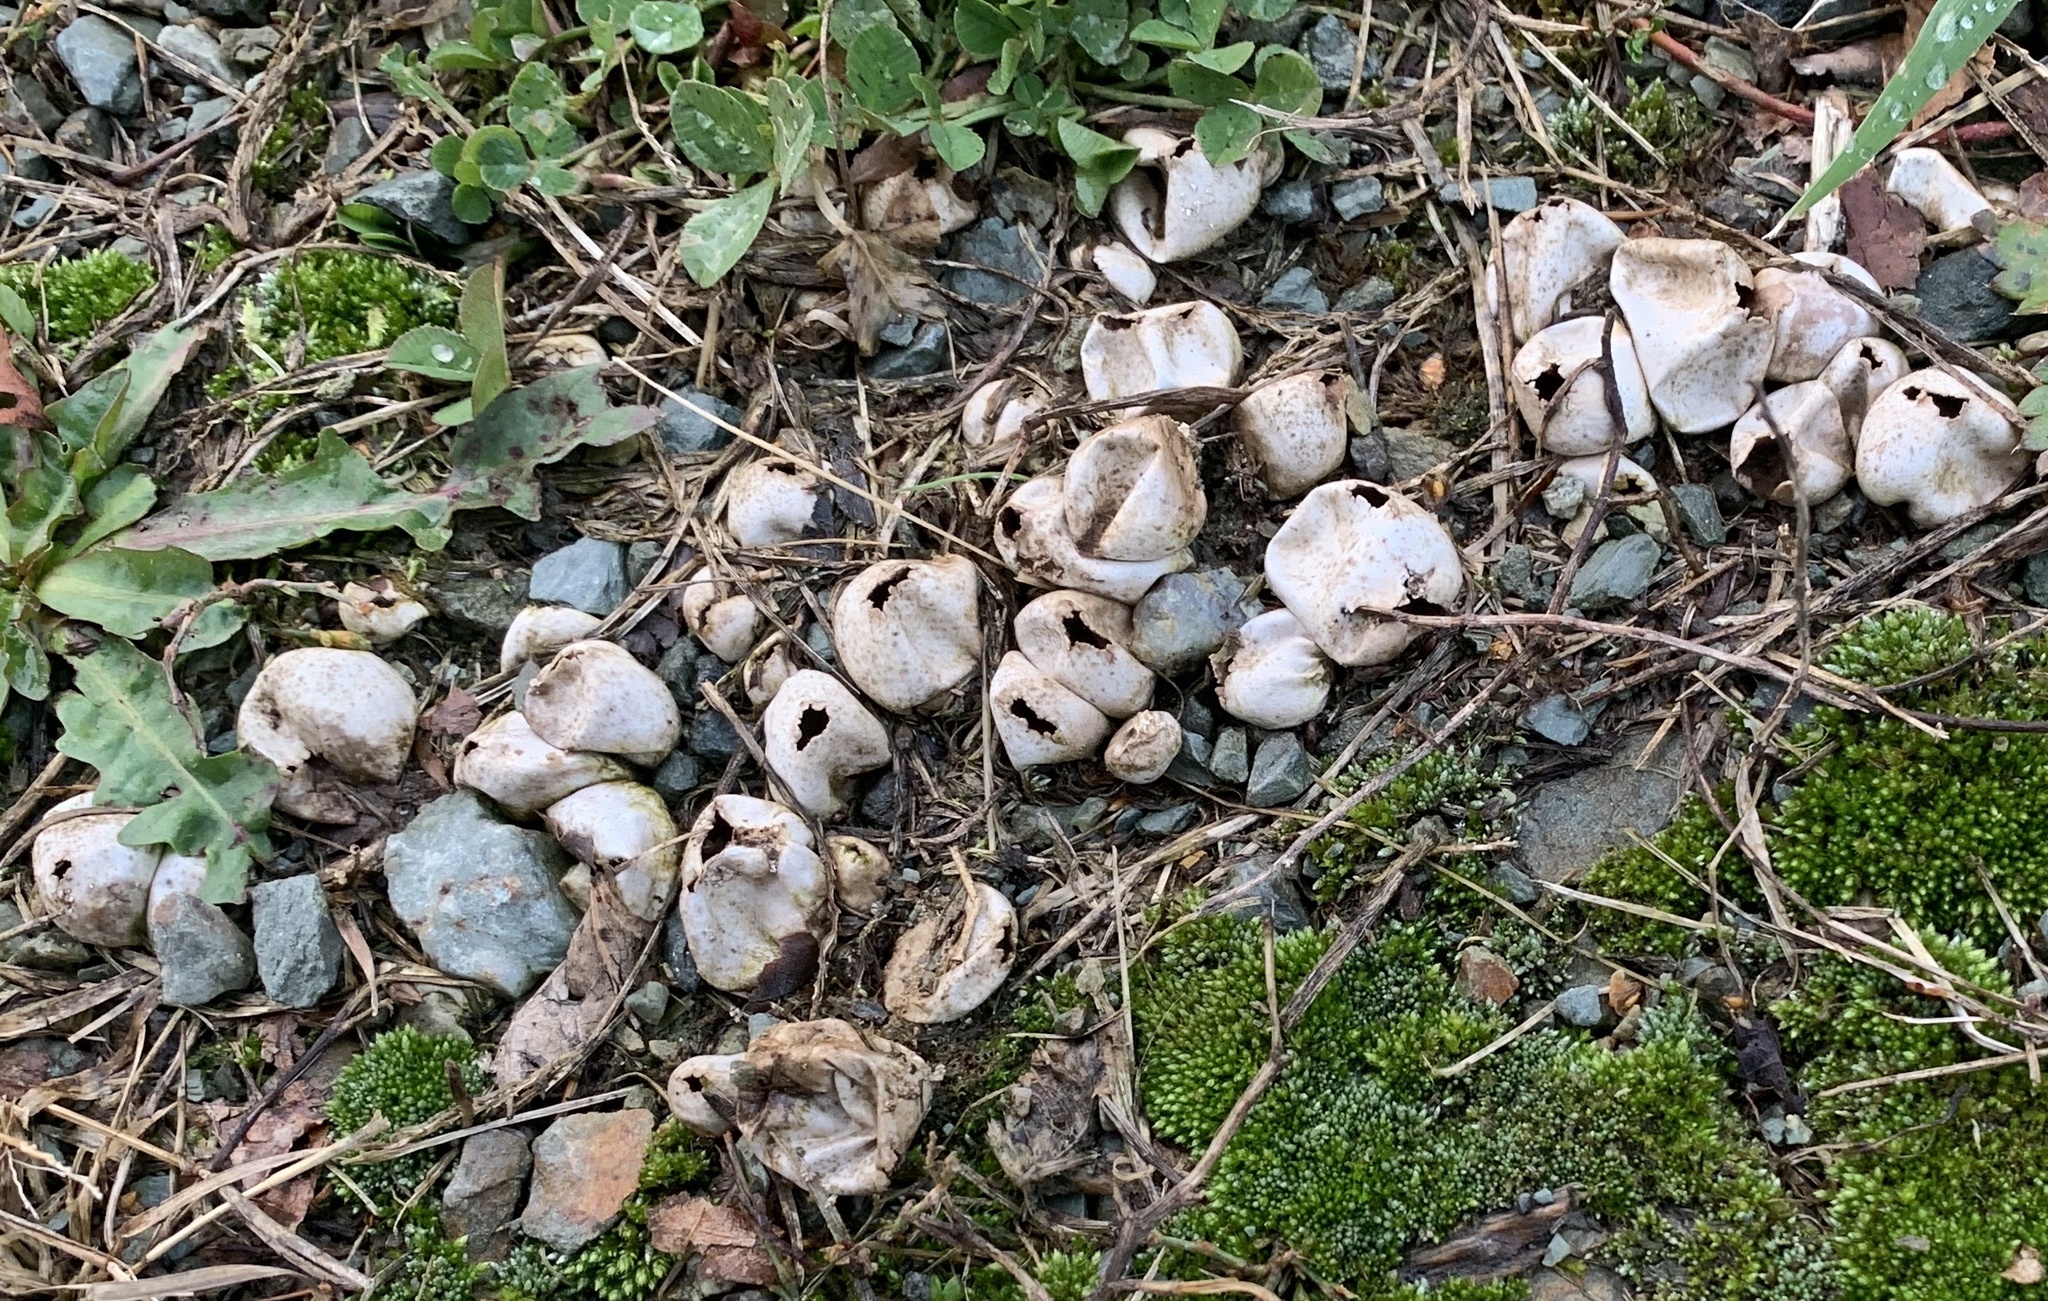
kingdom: Fungi
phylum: Basidiomycota
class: Agaricomycetes
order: Agaricales
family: Lycoperdaceae
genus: Apioperdon
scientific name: Apioperdon pyriforme
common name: Pear-shaped puffball
